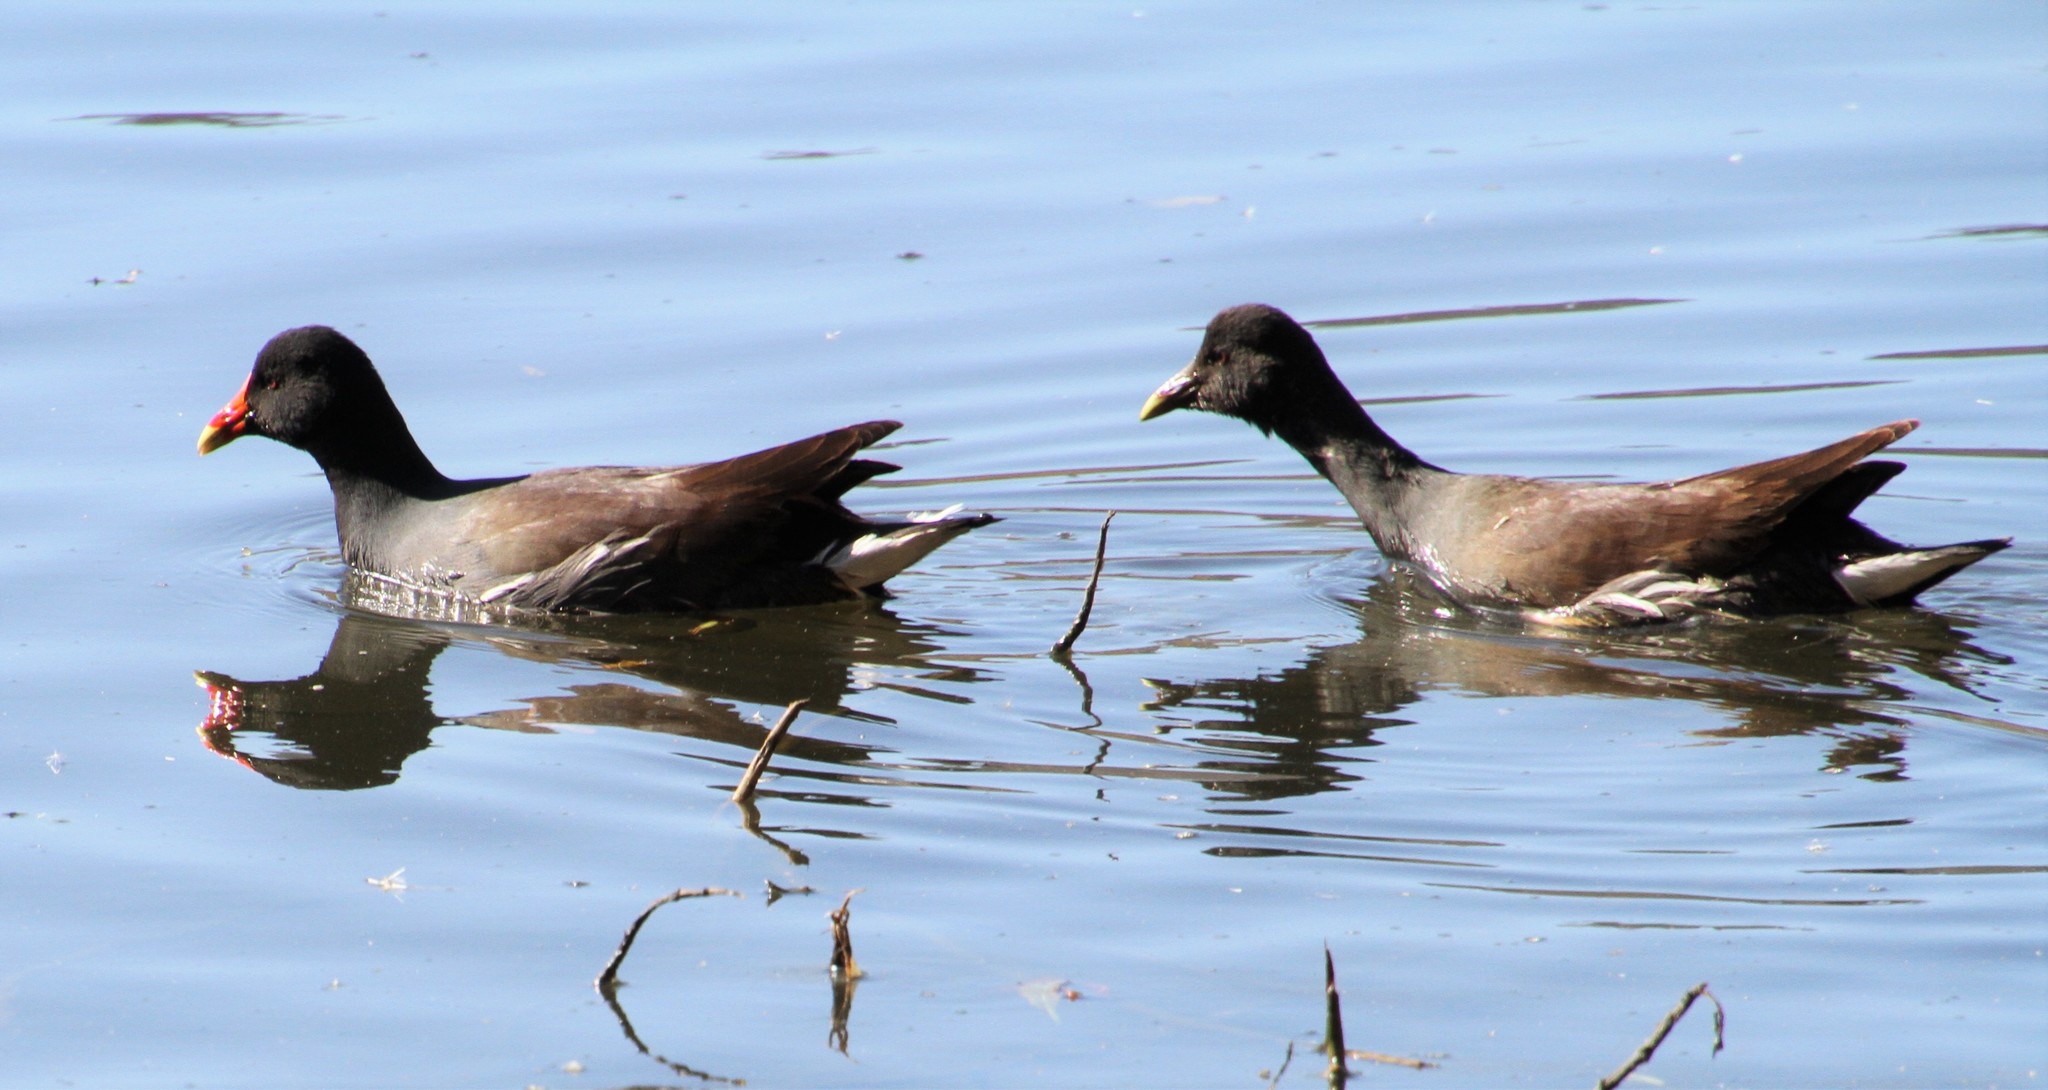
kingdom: Animalia
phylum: Chordata
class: Aves
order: Gruiformes
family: Rallidae
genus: Gallinula
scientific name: Gallinula chloropus
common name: Common moorhen
